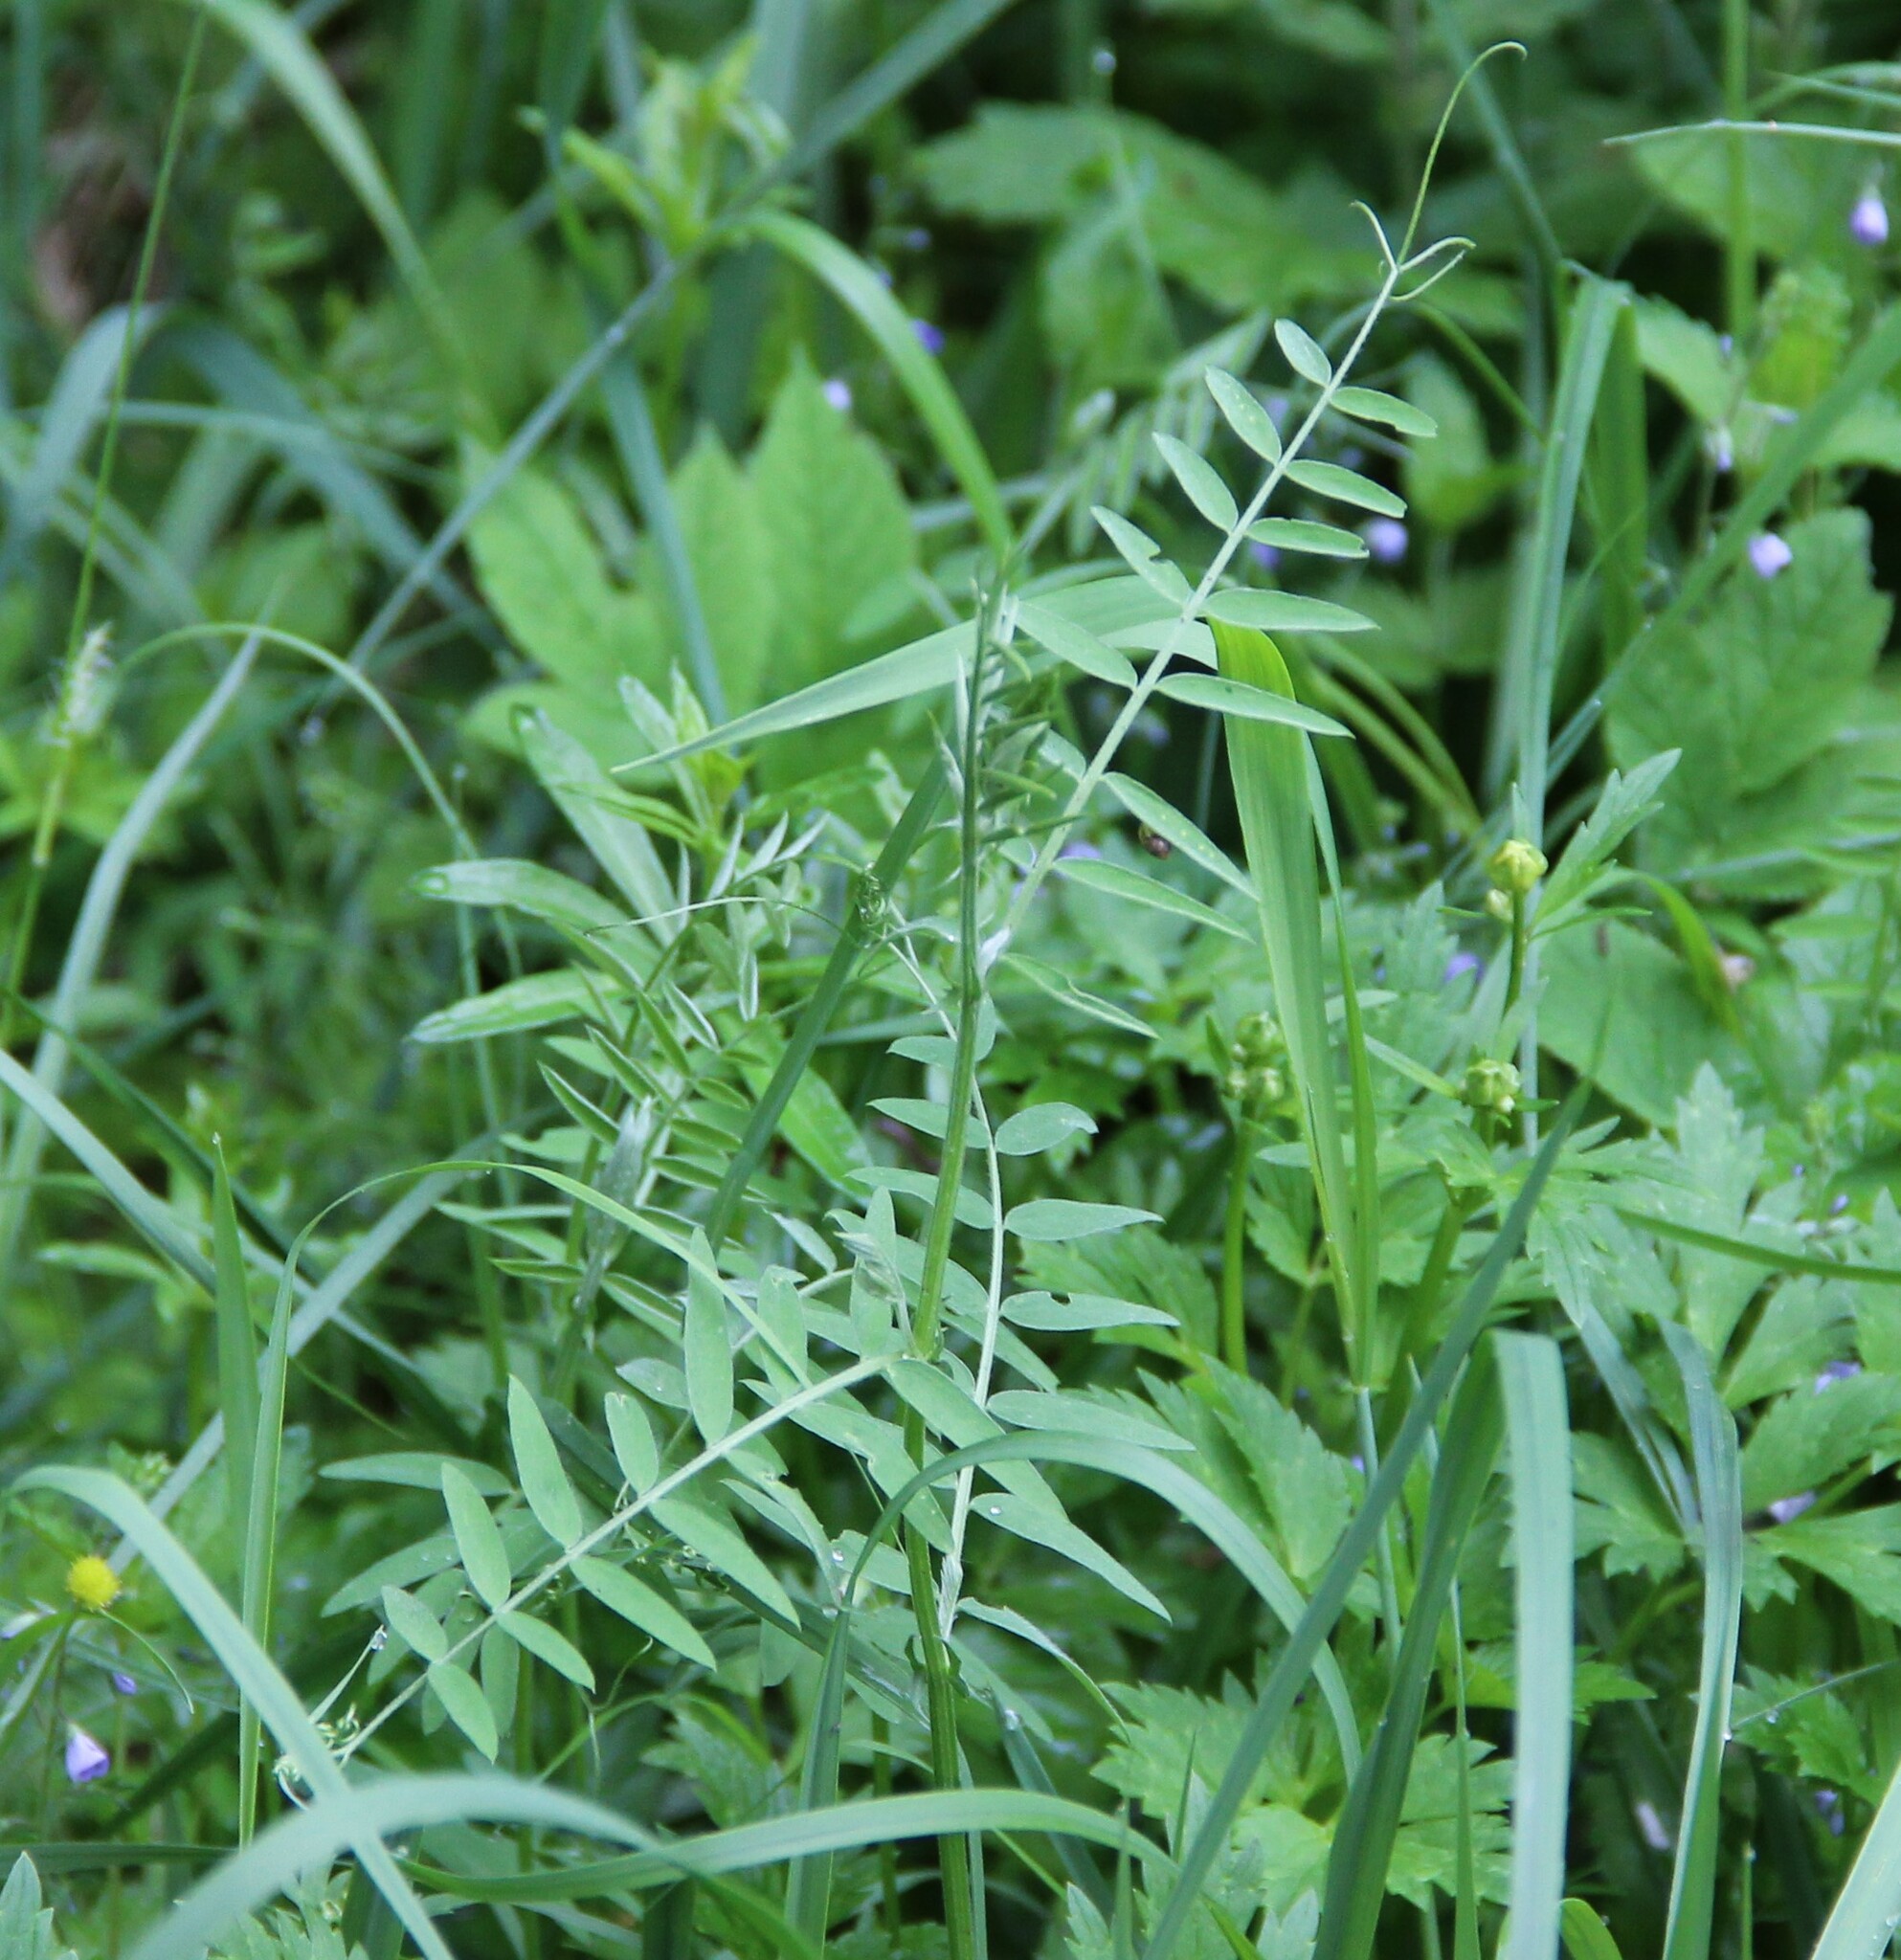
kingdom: Plantae
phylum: Tracheophyta
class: Magnoliopsida
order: Fabales
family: Fabaceae
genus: Vicia
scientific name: Vicia cracca
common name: Bird vetch
